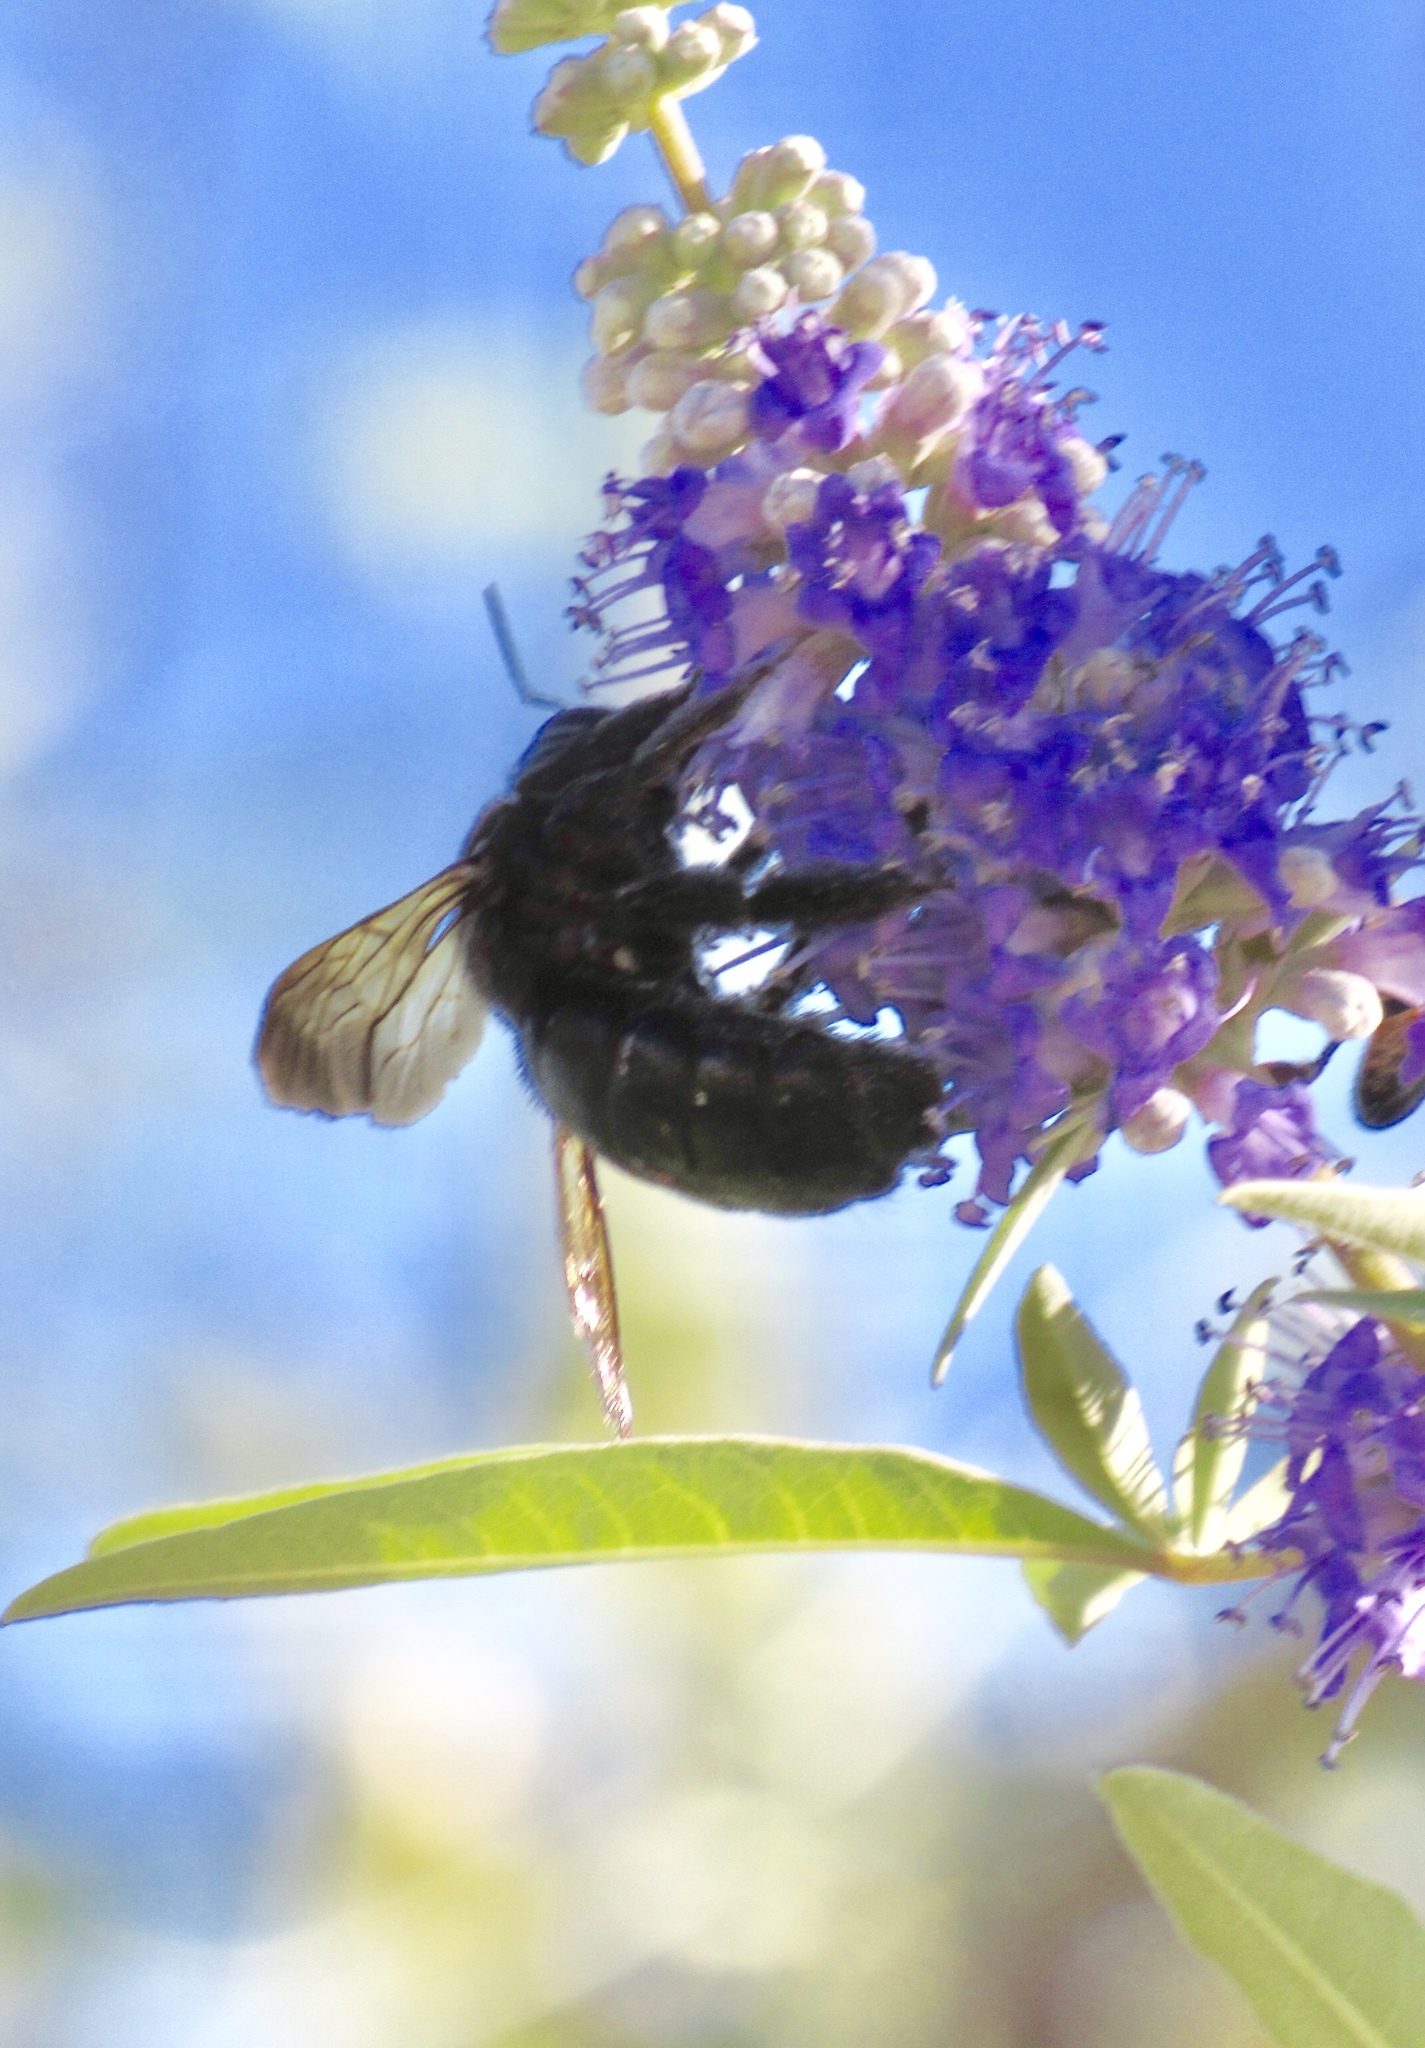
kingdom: Animalia
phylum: Arthropoda
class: Insecta
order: Hymenoptera
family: Apidae
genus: Xylocopa
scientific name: Xylocopa sonorina
